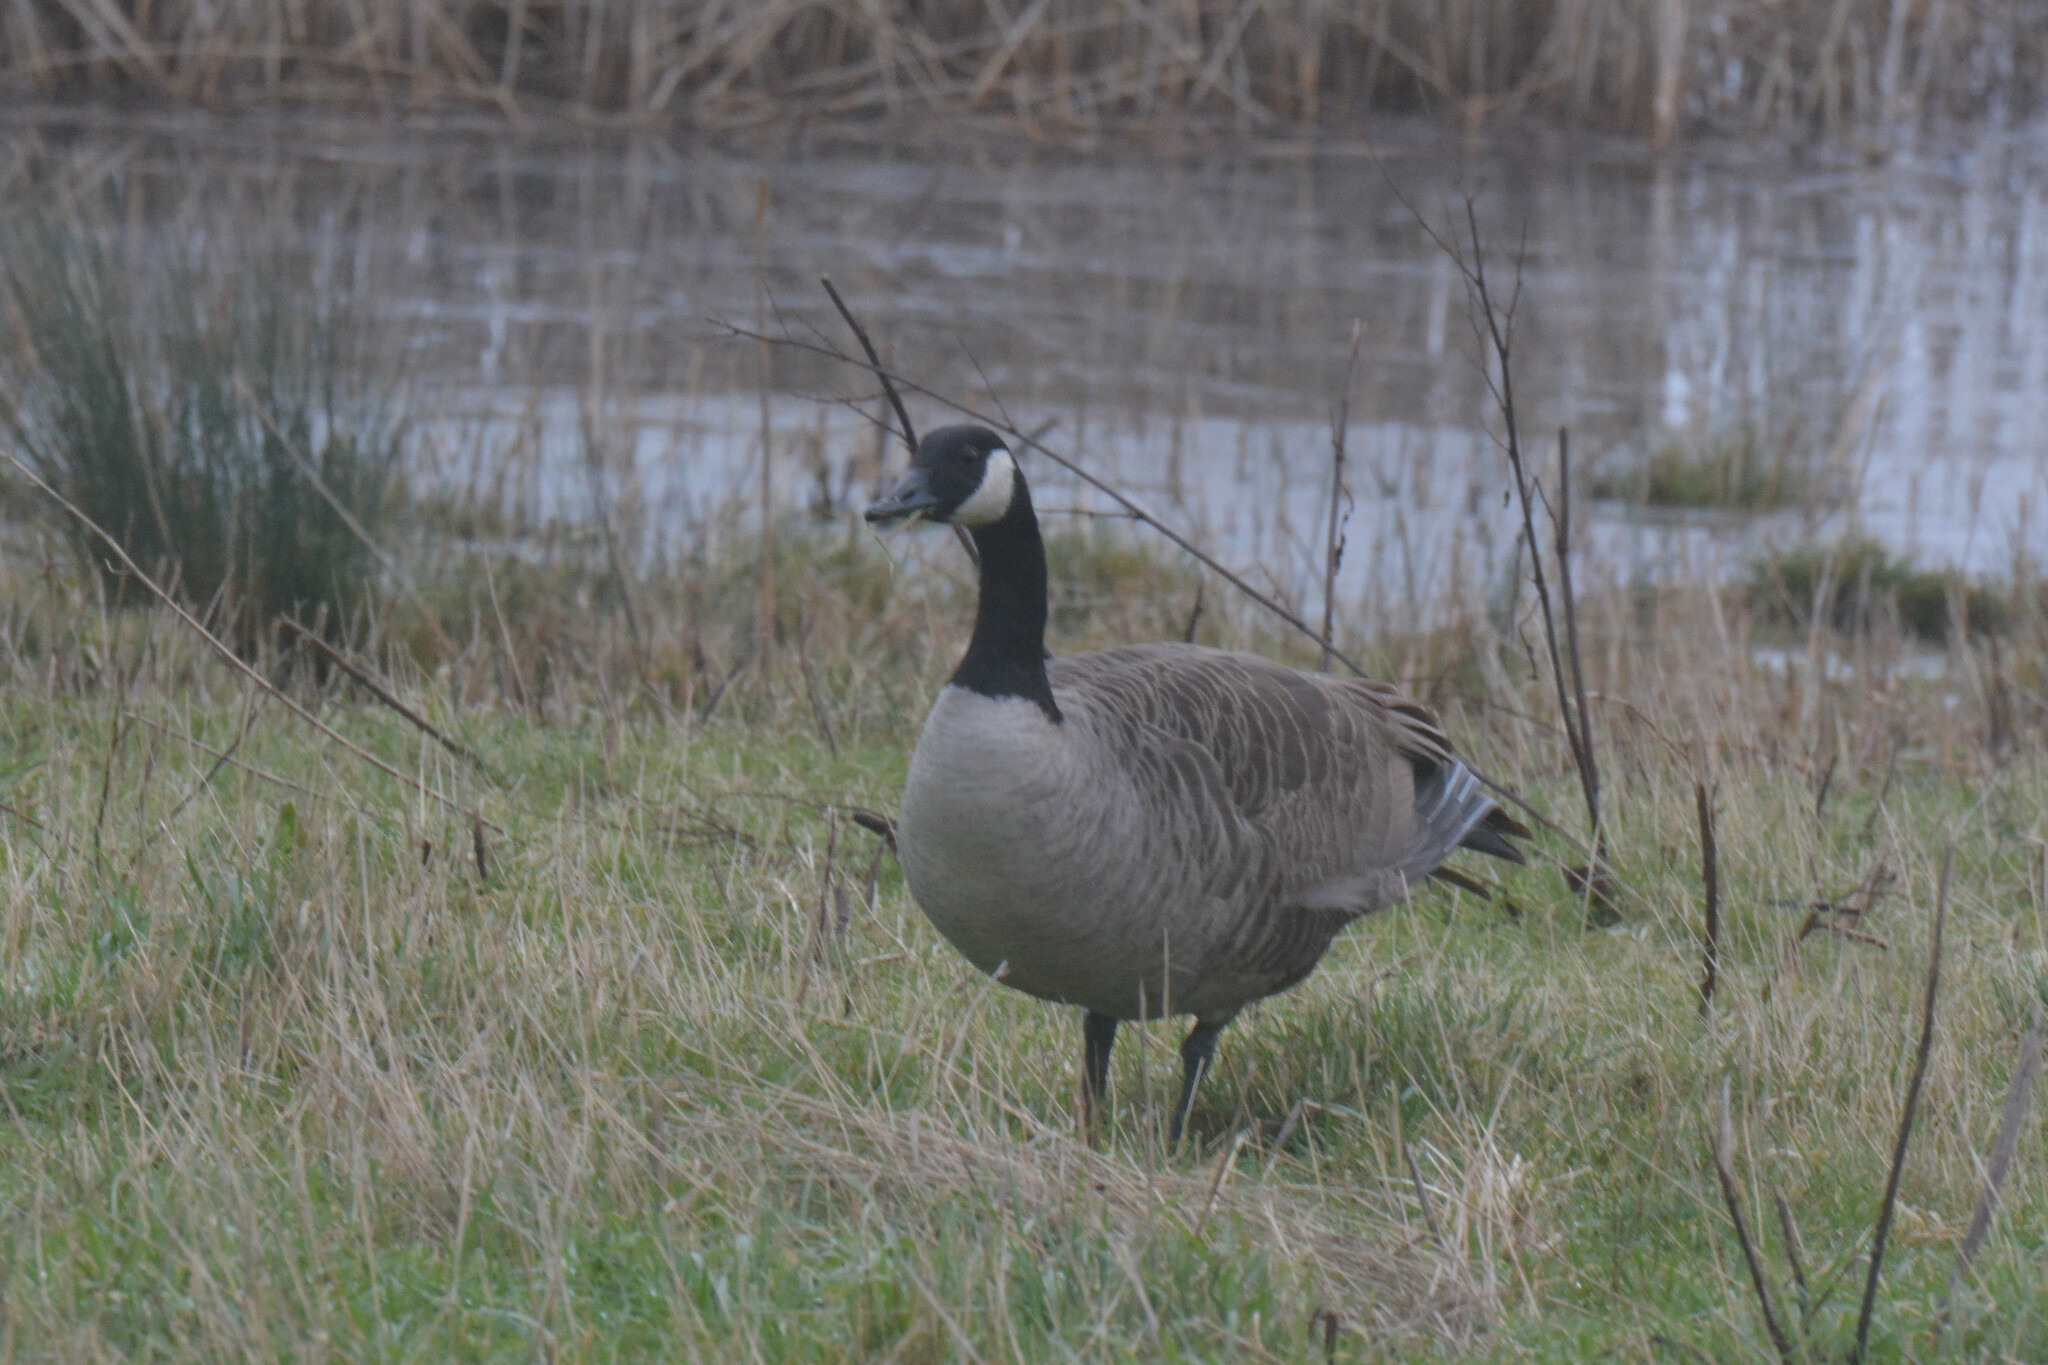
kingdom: Animalia
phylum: Chordata
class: Aves
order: Anseriformes
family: Anatidae
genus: Branta
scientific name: Branta canadensis
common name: Canada goose
